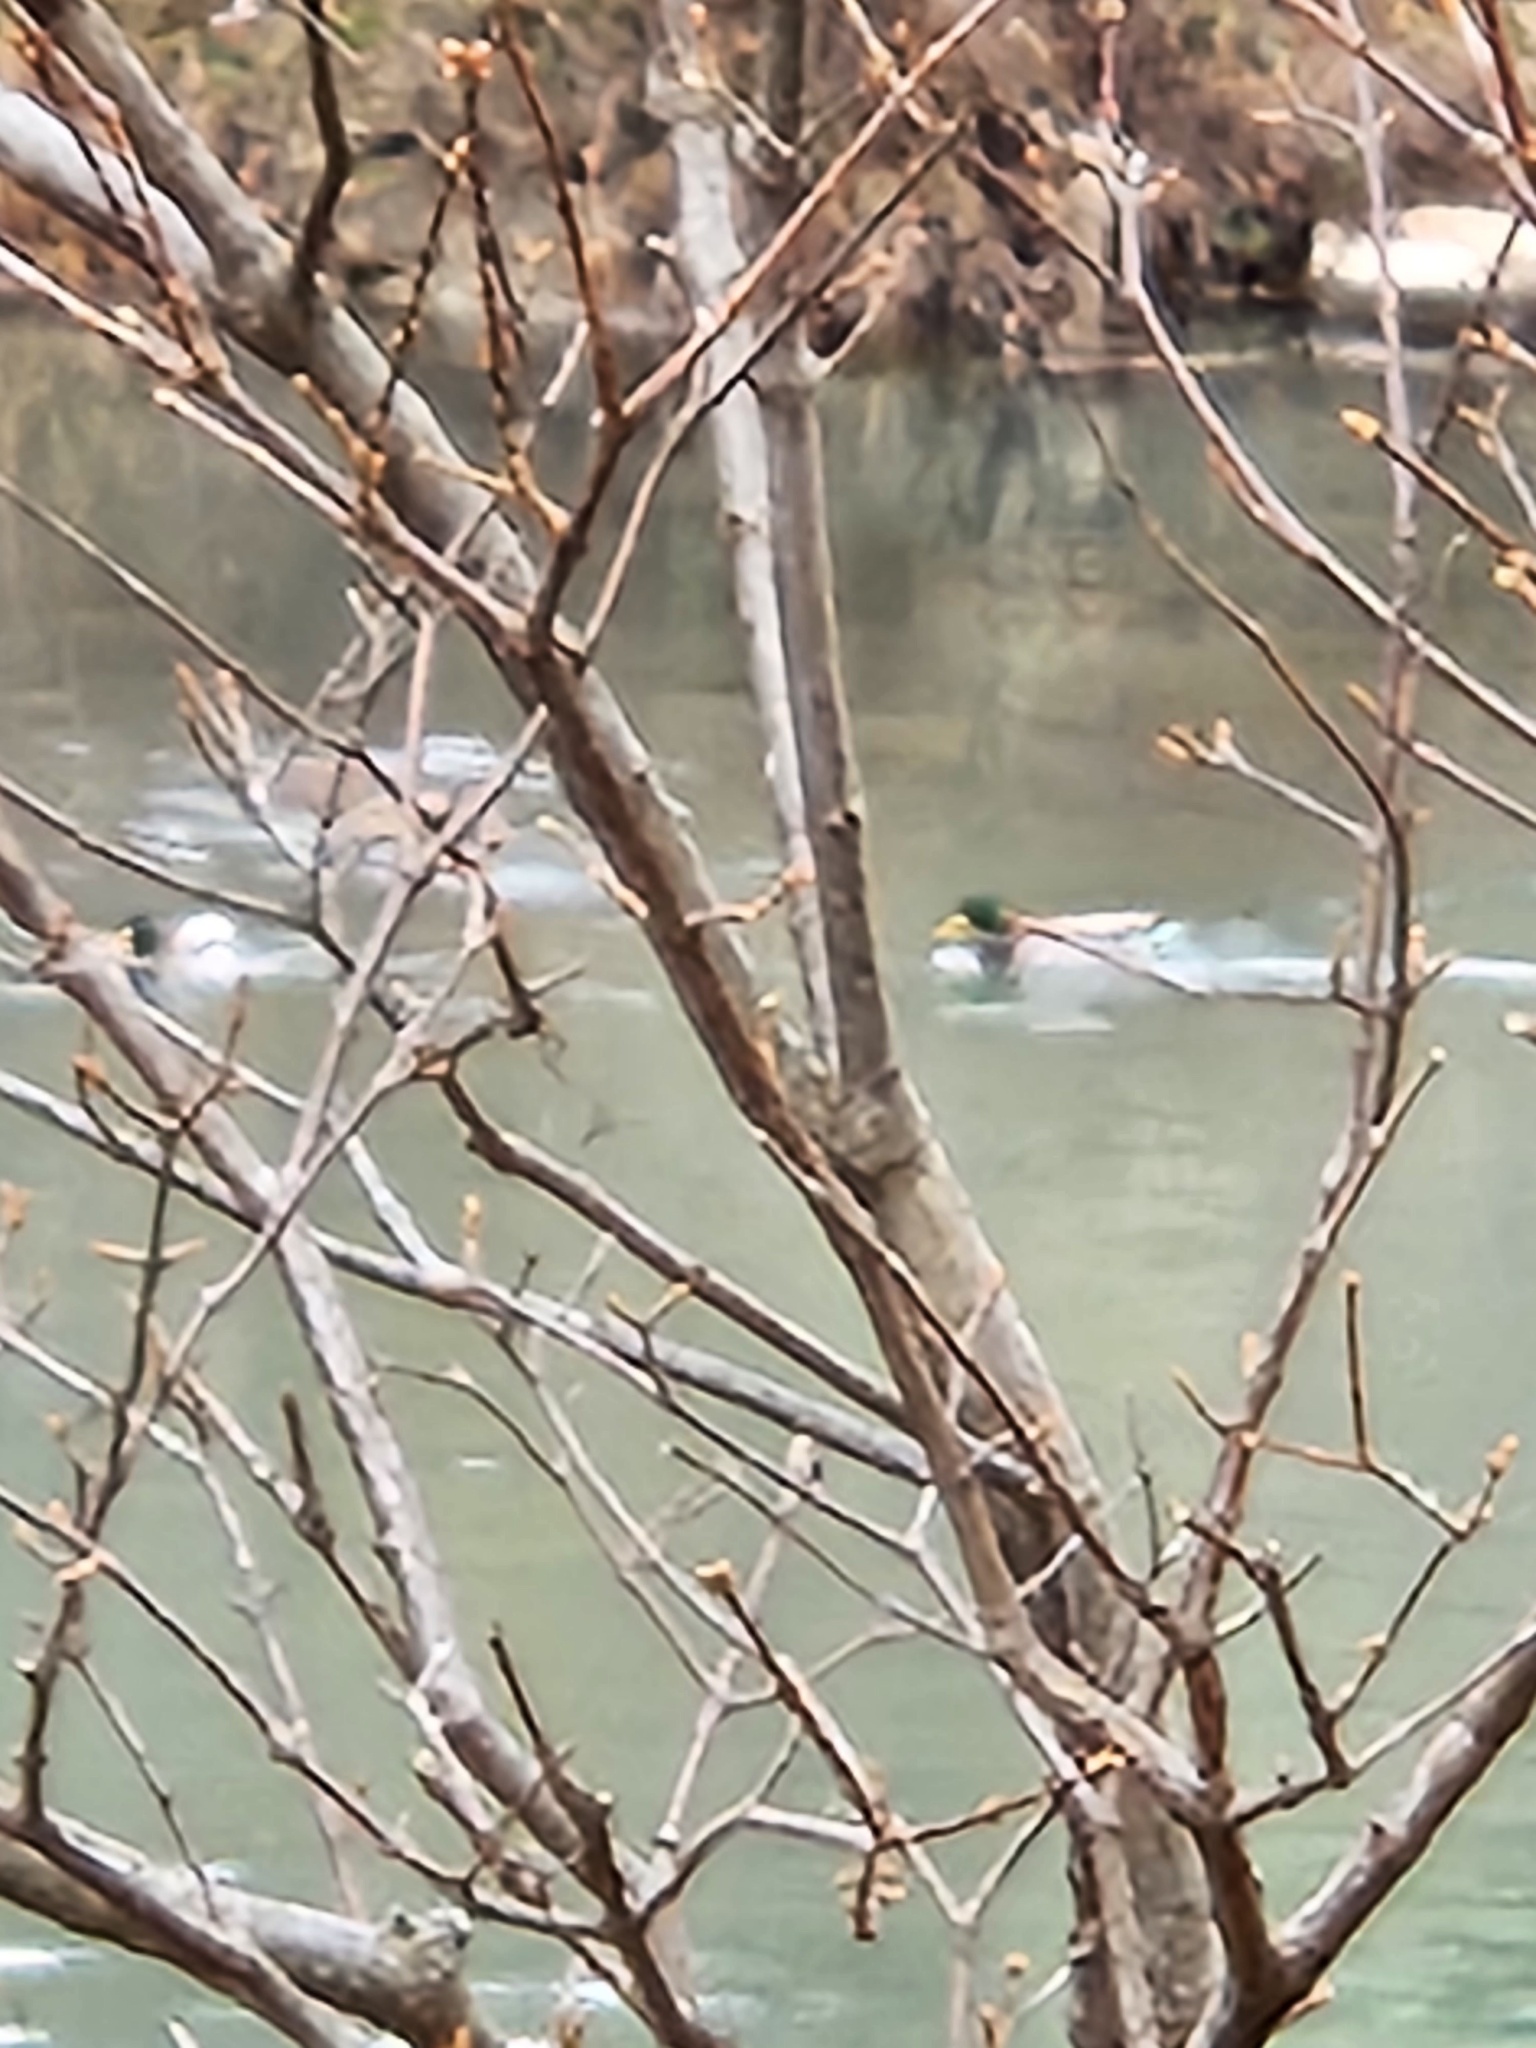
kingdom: Animalia
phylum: Chordata
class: Aves
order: Anseriformes
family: Anatidae
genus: Anas
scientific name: Anas platyrhynchos
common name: Mallard
